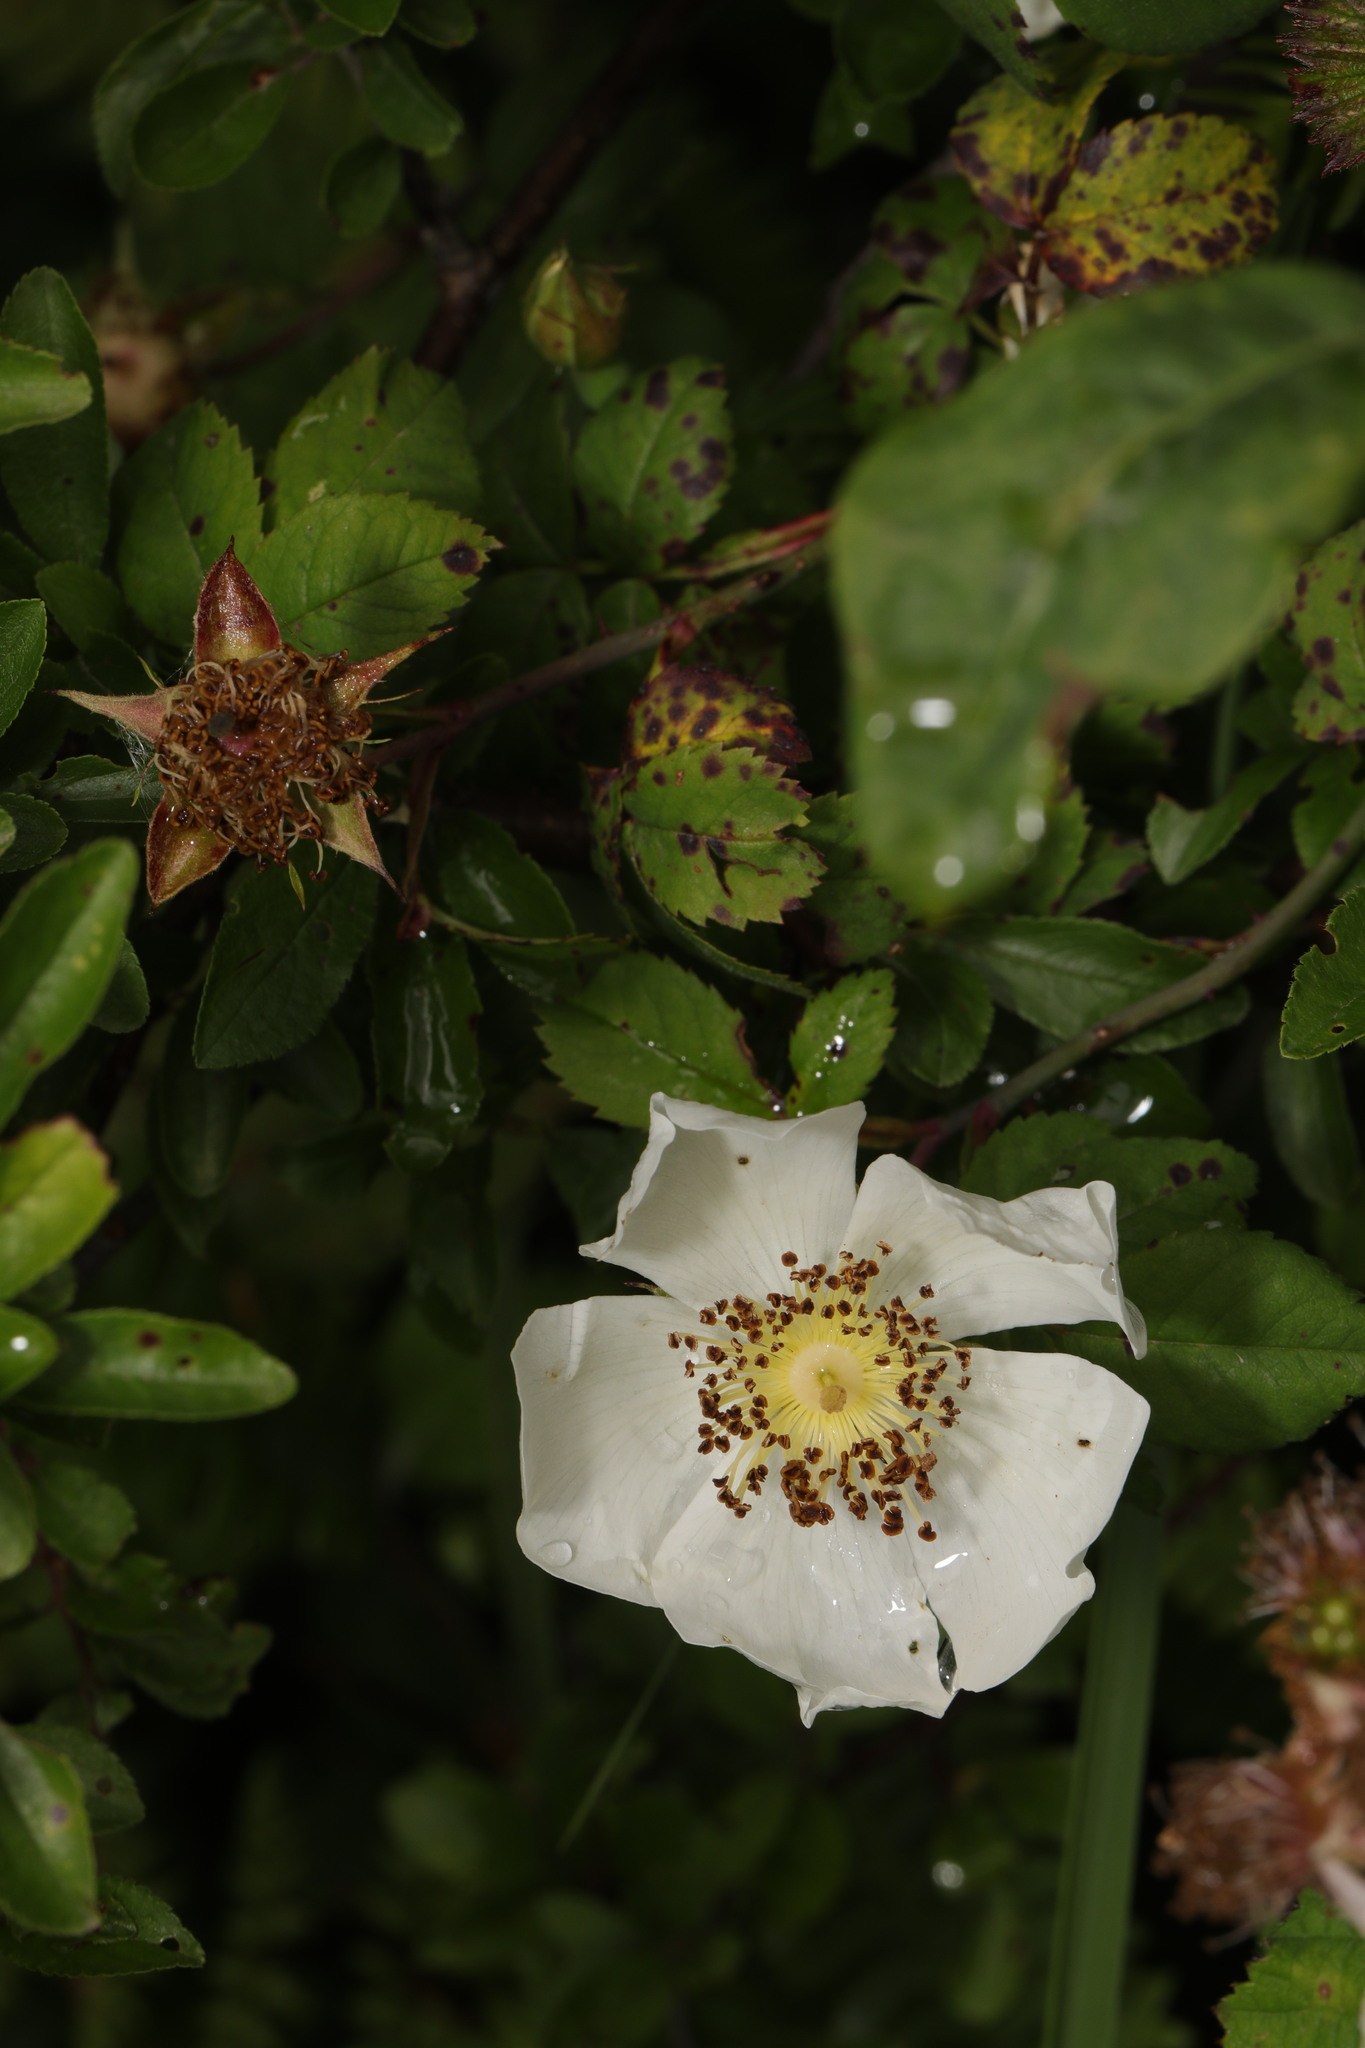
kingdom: Plantae
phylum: Tracheophyta
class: Magnoliopsida
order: Rosales
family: Rosaceae
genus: Rosa
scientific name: Rosa arvensis
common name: Field rose
